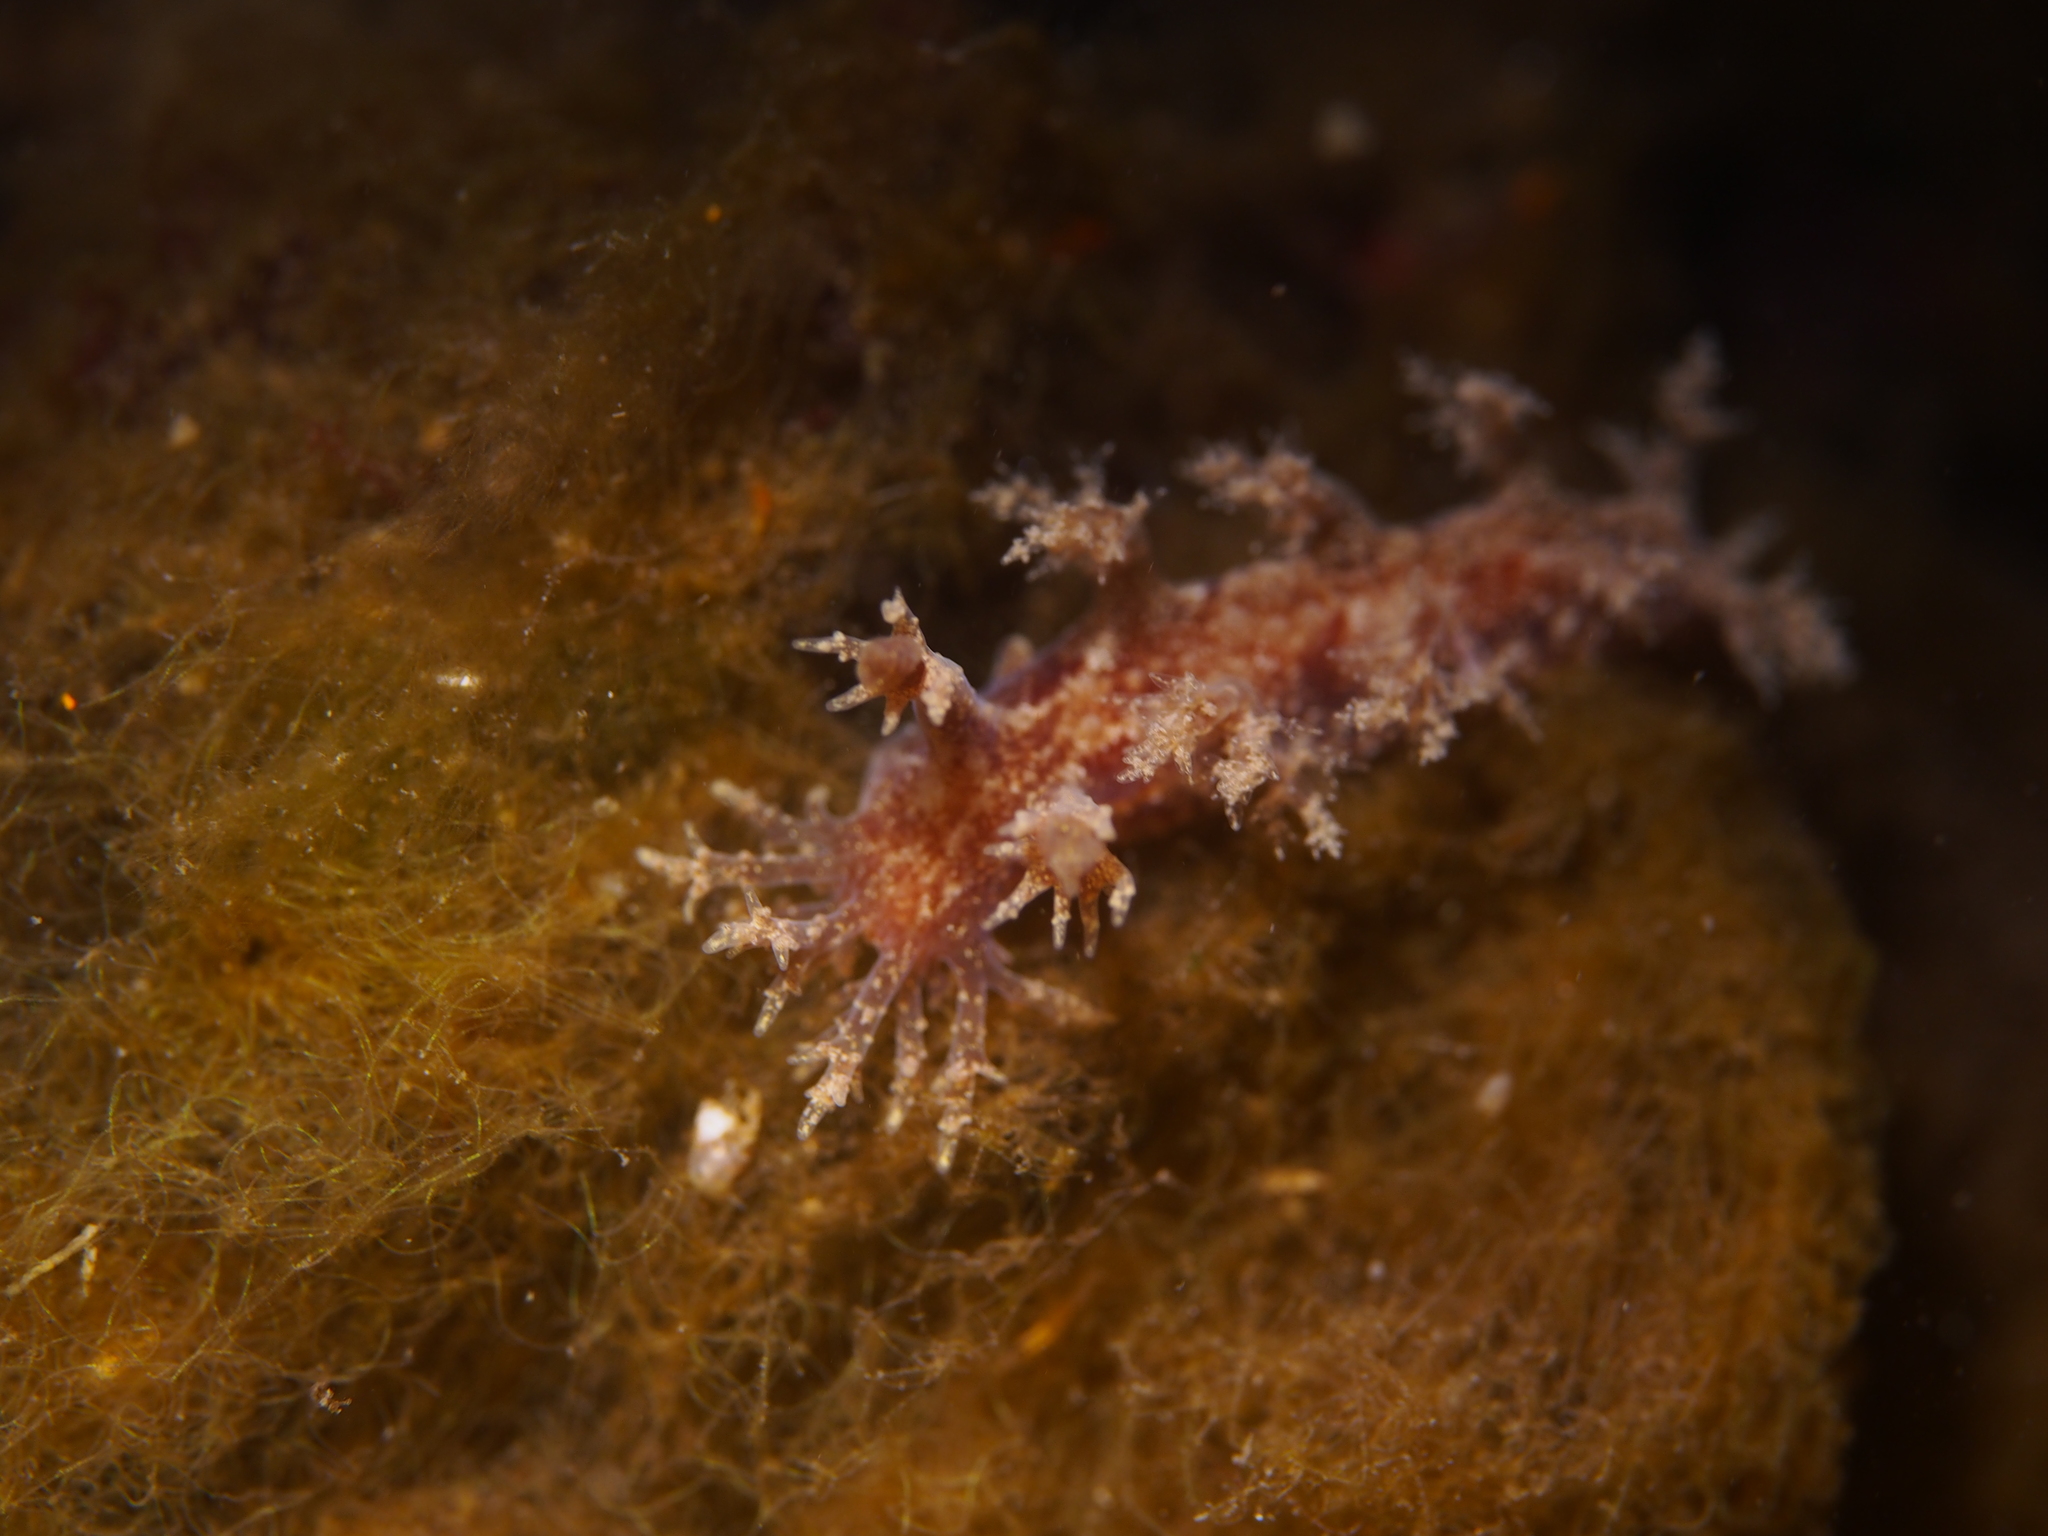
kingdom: Animalia
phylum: Mollusca
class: Gastropoda
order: Nudibranchia
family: Dendronotidae
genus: Dendronotus
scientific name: Dendronotus frondosus
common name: Bushy-backed nudibranch
